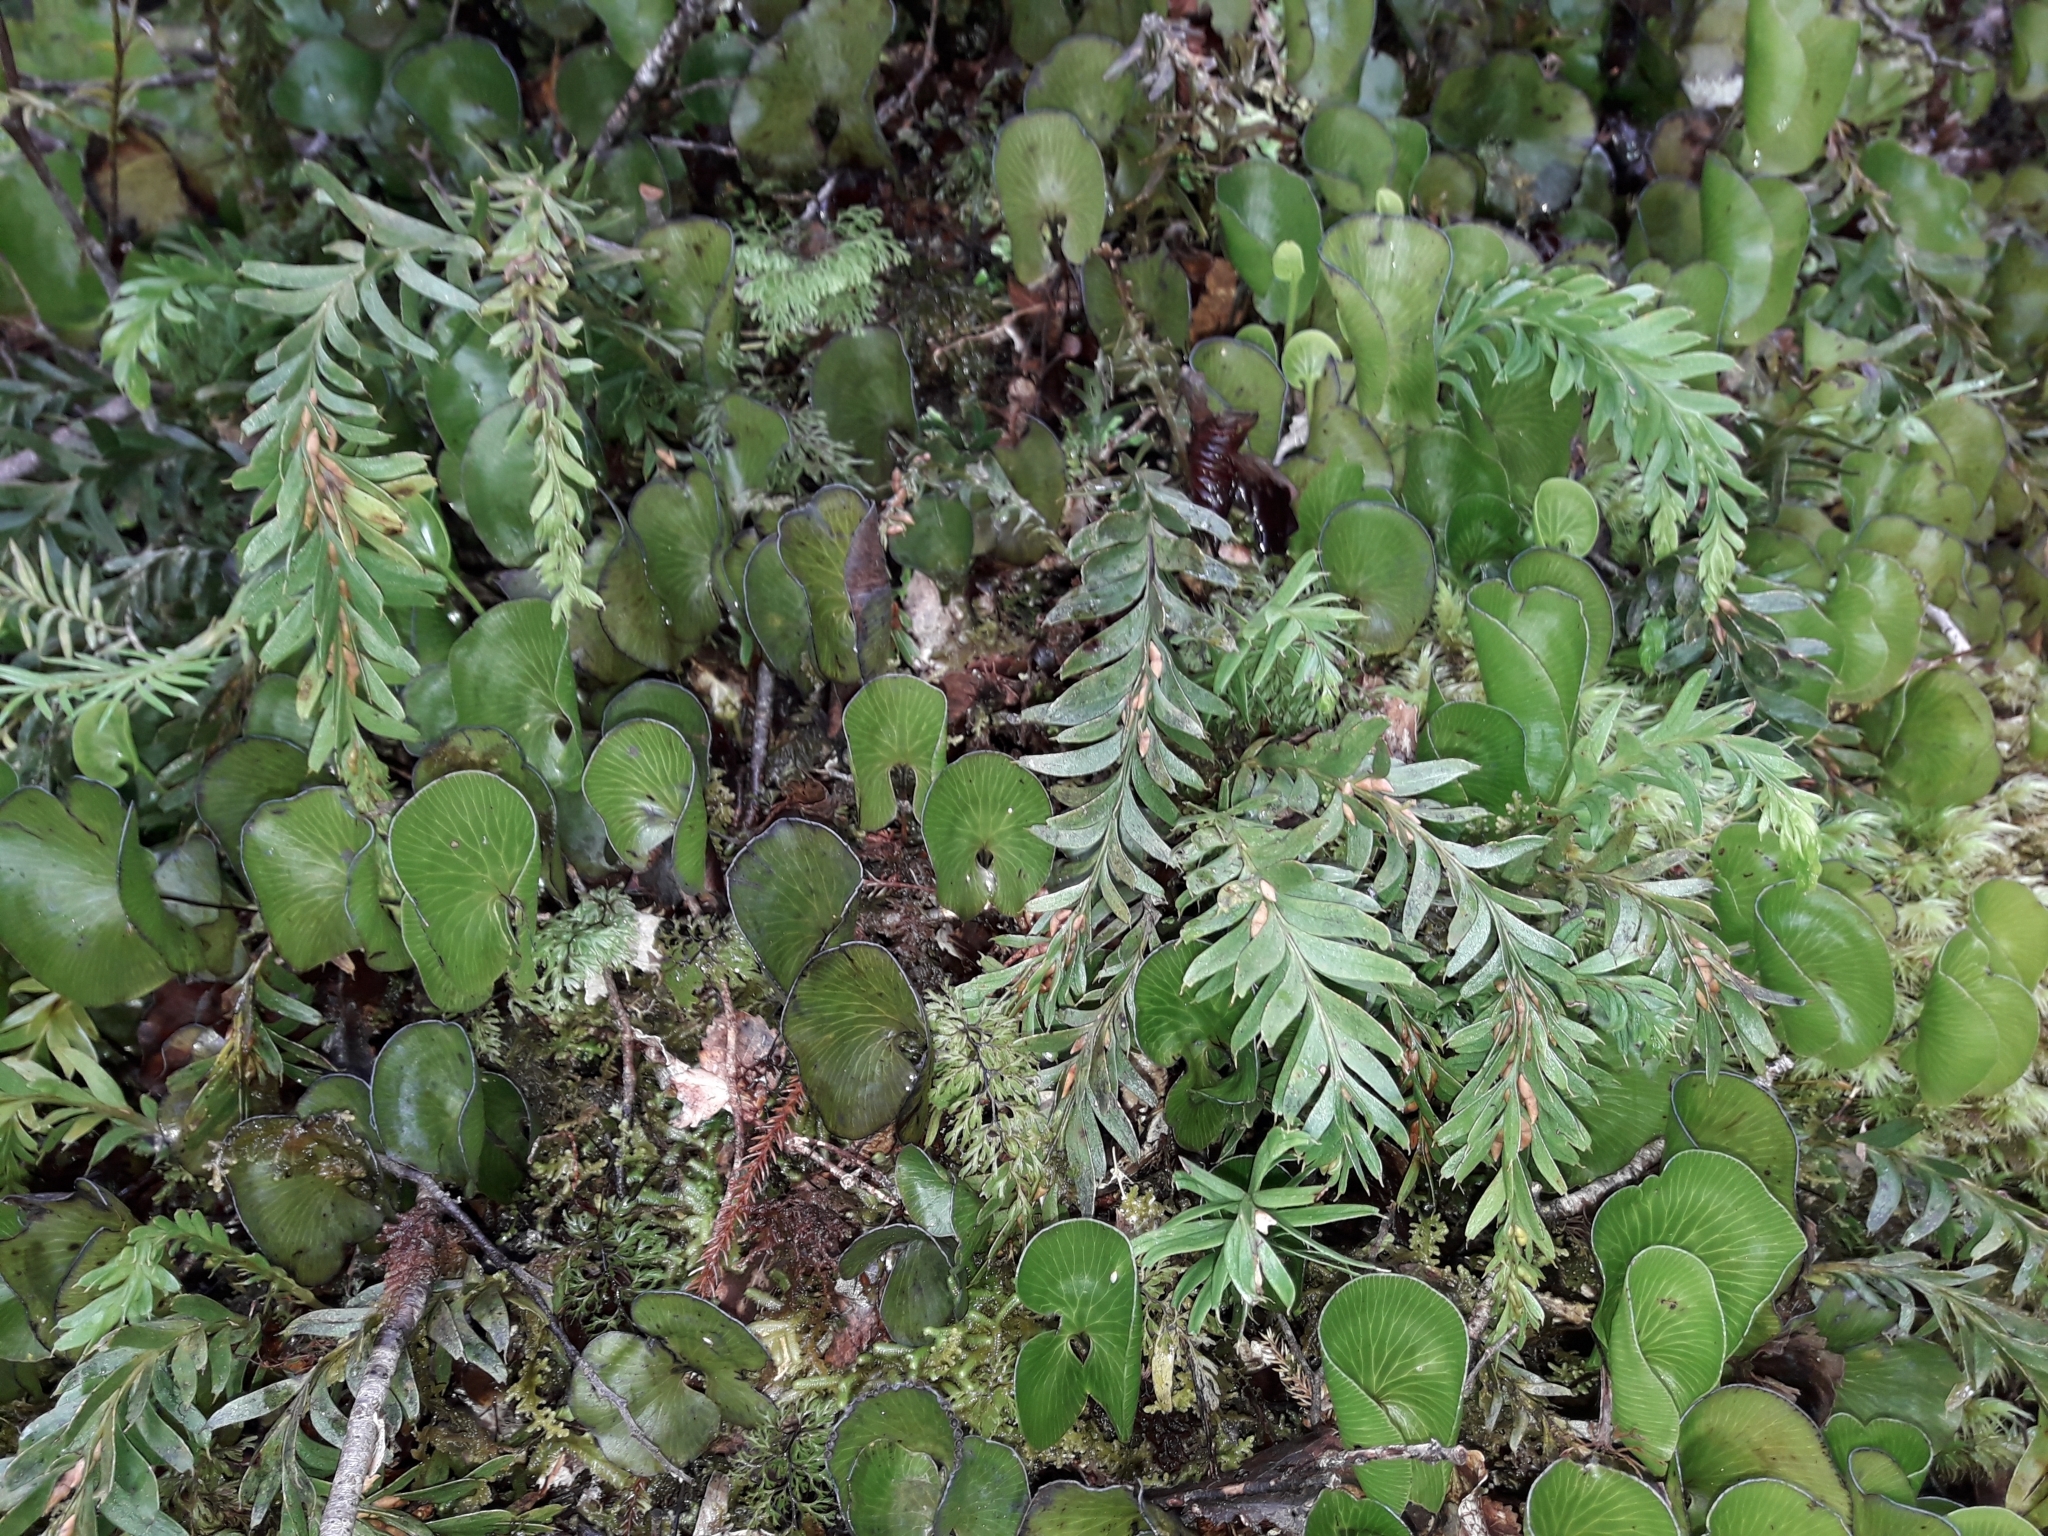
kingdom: Plantae
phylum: Tracheophyta
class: Polypodiopsida
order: Psilotales
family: Psilotaceae
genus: Tmesipteris
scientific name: Tmesipteris tannensis
